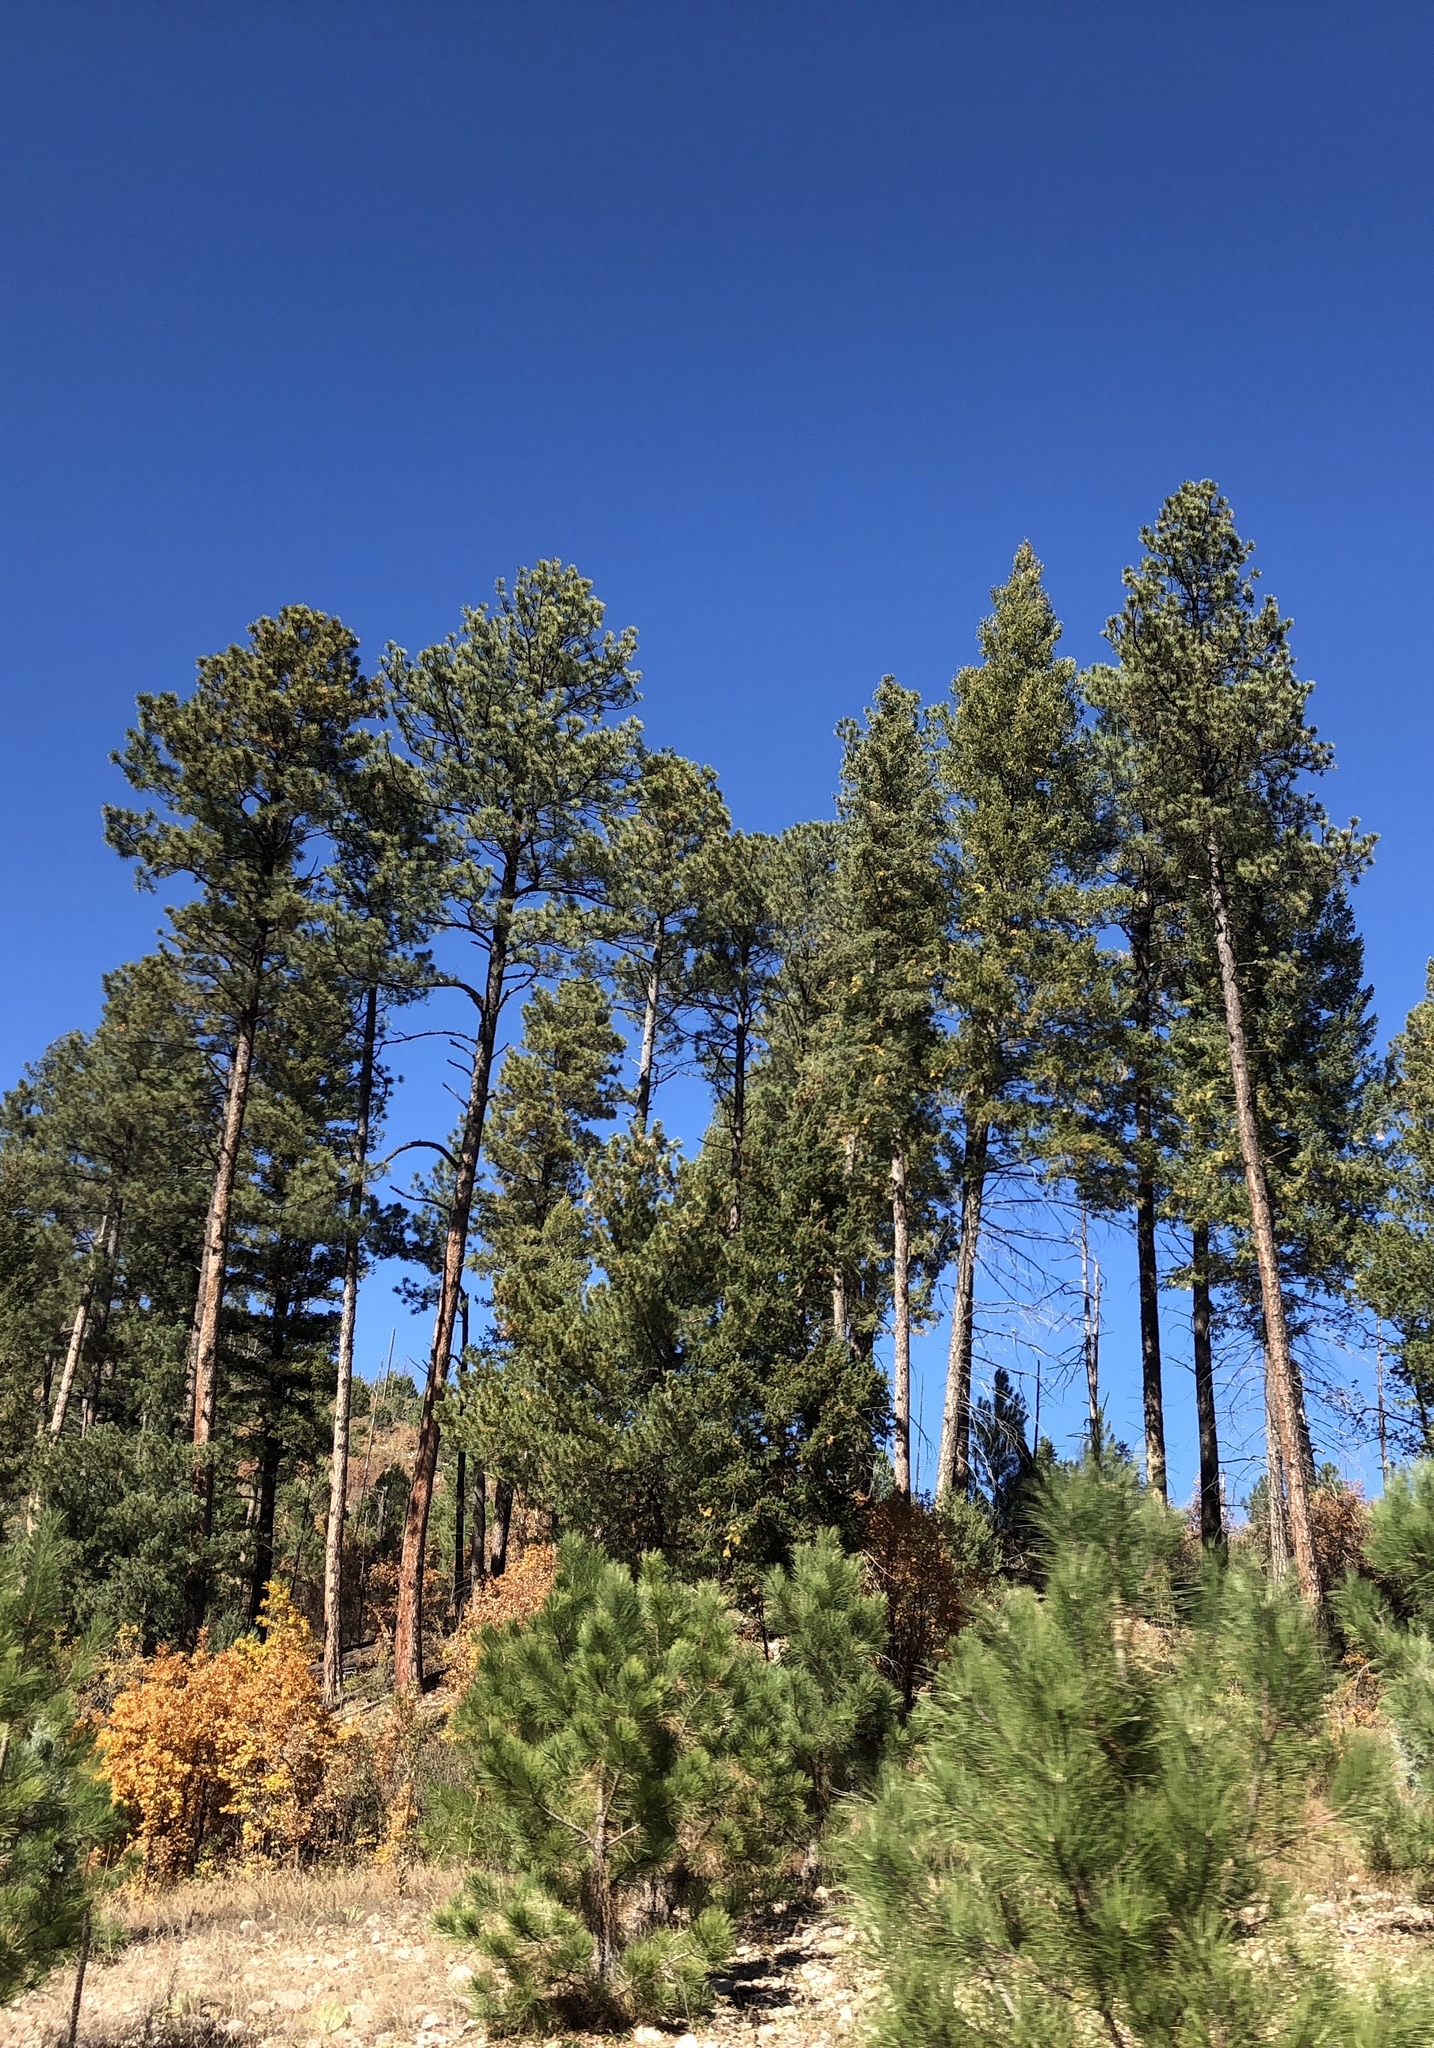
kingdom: Plantae
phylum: Tracheophyta
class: Pinopsida
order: Pinales
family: Pinaceae
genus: Pinus
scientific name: Pinus ponderosa
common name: Western yellow-pine
